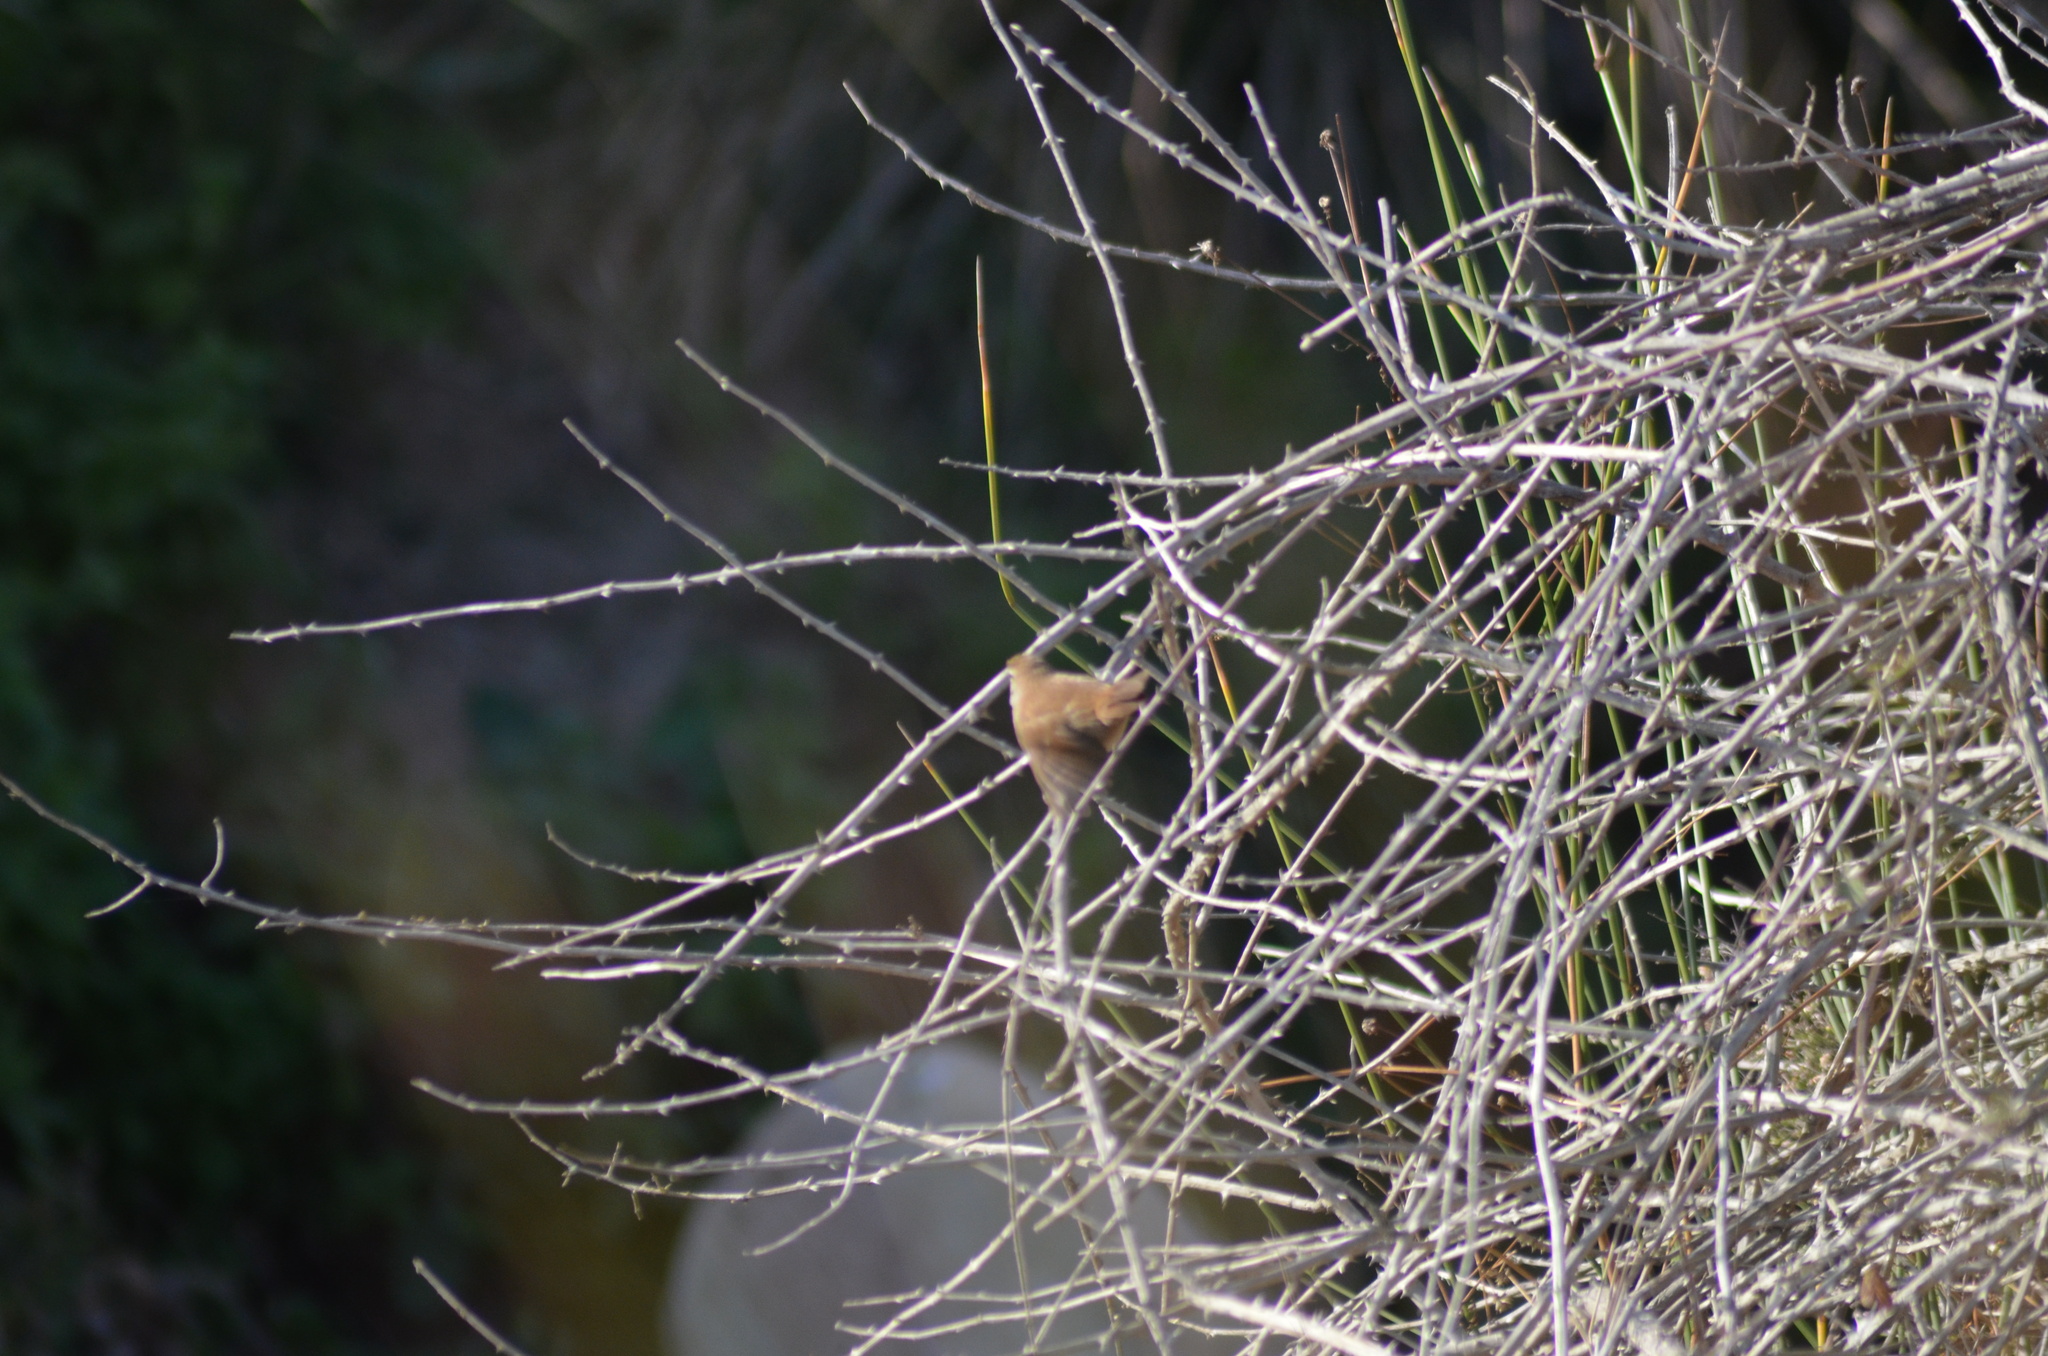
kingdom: Animalia
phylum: Chordata
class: Aves
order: Passeriformes
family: Cettiidae
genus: Cettia
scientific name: Cettia cetti
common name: Cetti's warbler
